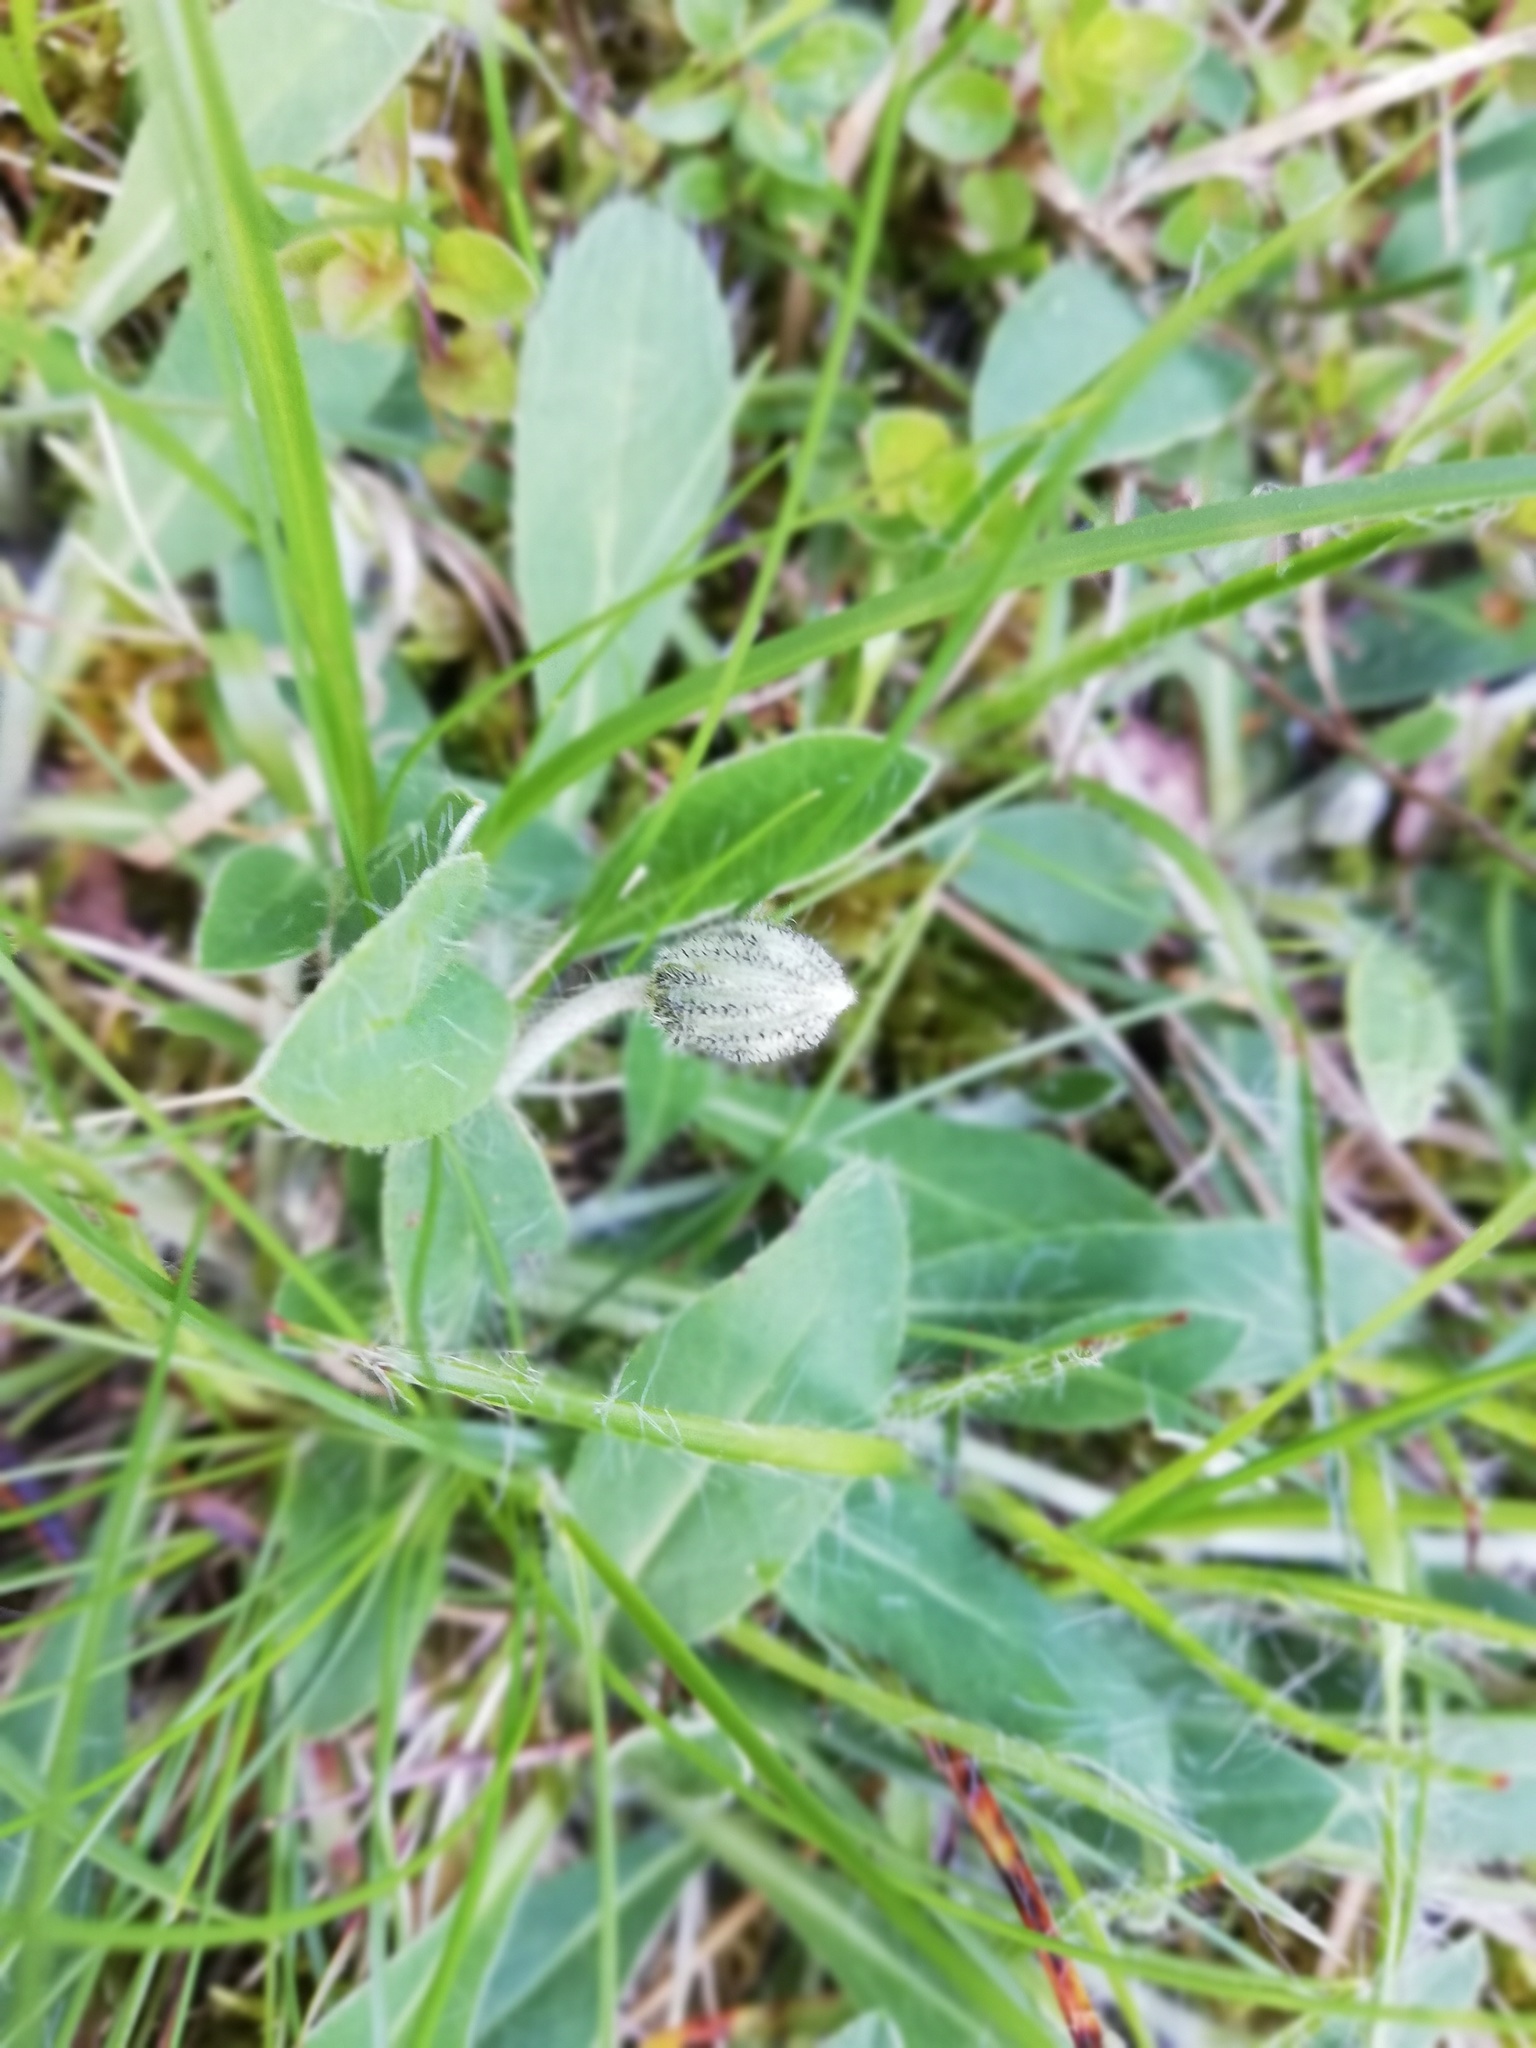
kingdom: Plantae
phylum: Tracheophyta
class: Magnoliopsida
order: Asterales
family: Asteraceae
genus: Pilosella
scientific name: Pilosella officinarum
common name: Mouse-ear hawkweed
